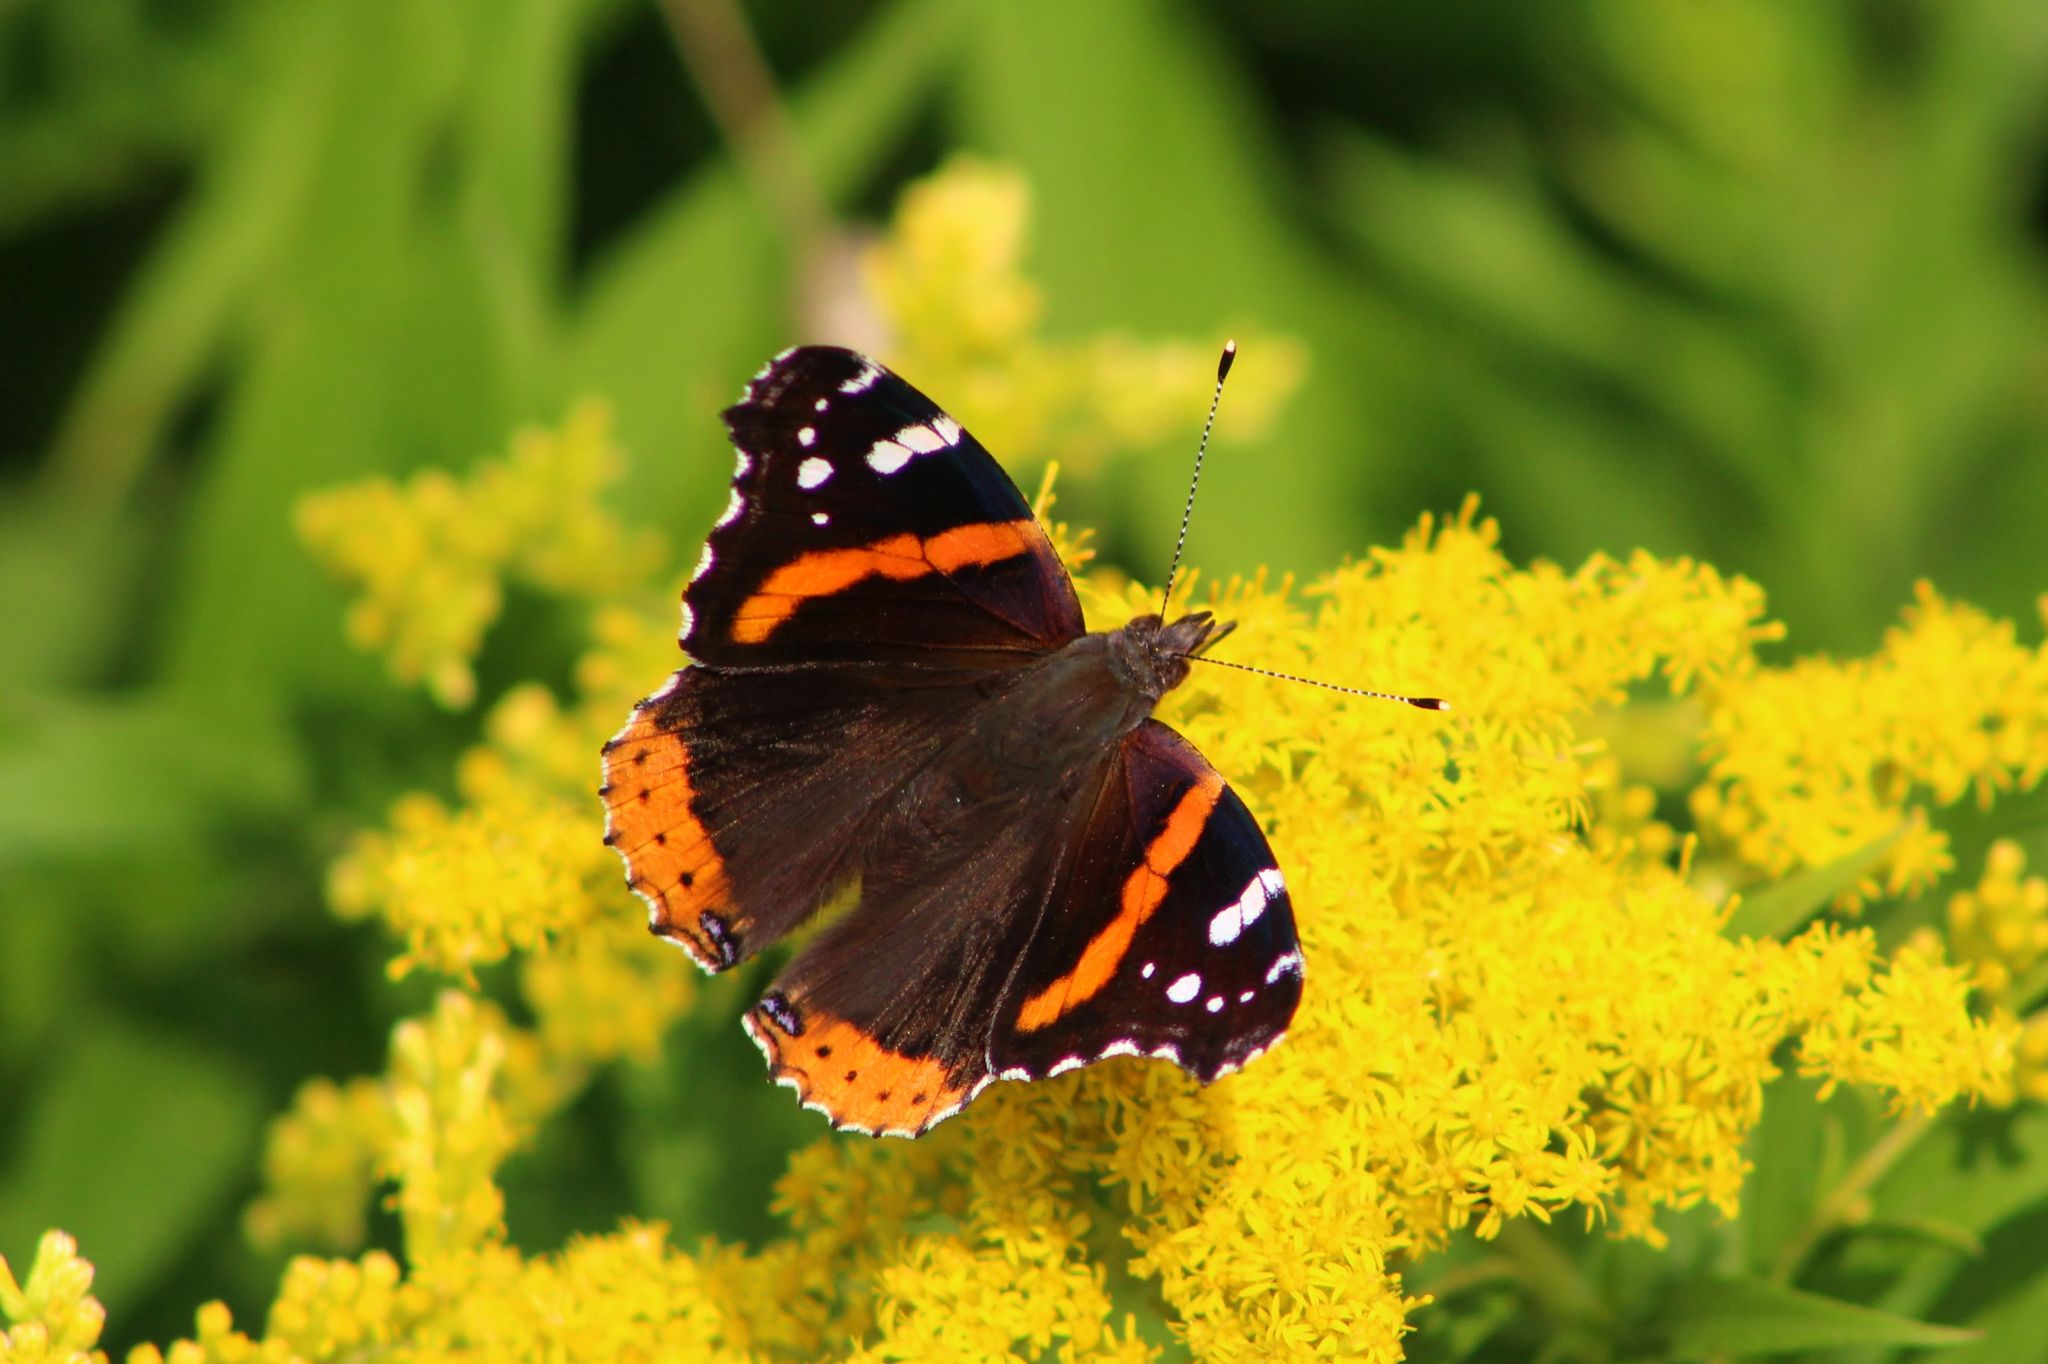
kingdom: Animalia
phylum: Arthropoda
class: Insecta
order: Lepidoptera
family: Nymphalidae
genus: Vanessa
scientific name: Vanessa atalanta
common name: Red admiral
